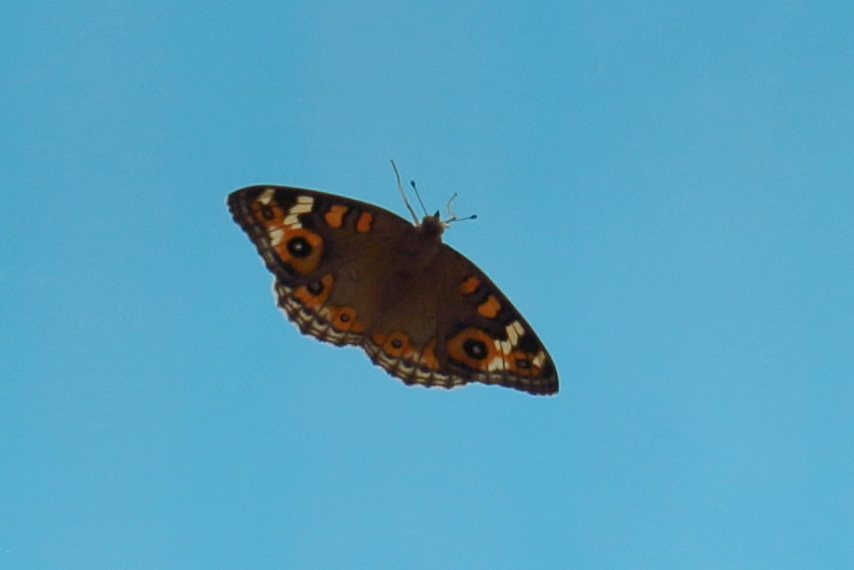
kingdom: Animalia
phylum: Arthropoda
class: Insecta
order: Lepidoptera
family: Nymphalidae
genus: Junonia
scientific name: Junonia villida
